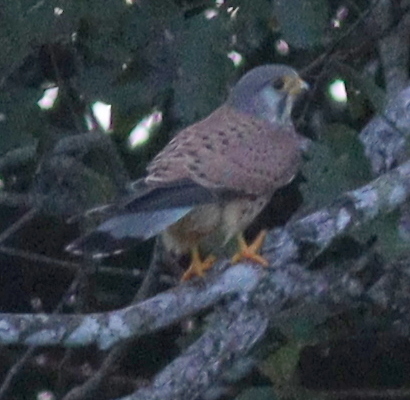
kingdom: Animalia
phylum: Chordata
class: Aves
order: Falconiformes
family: Falconidae
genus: Falco
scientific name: Falco tinnunculus
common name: Common kestrel
